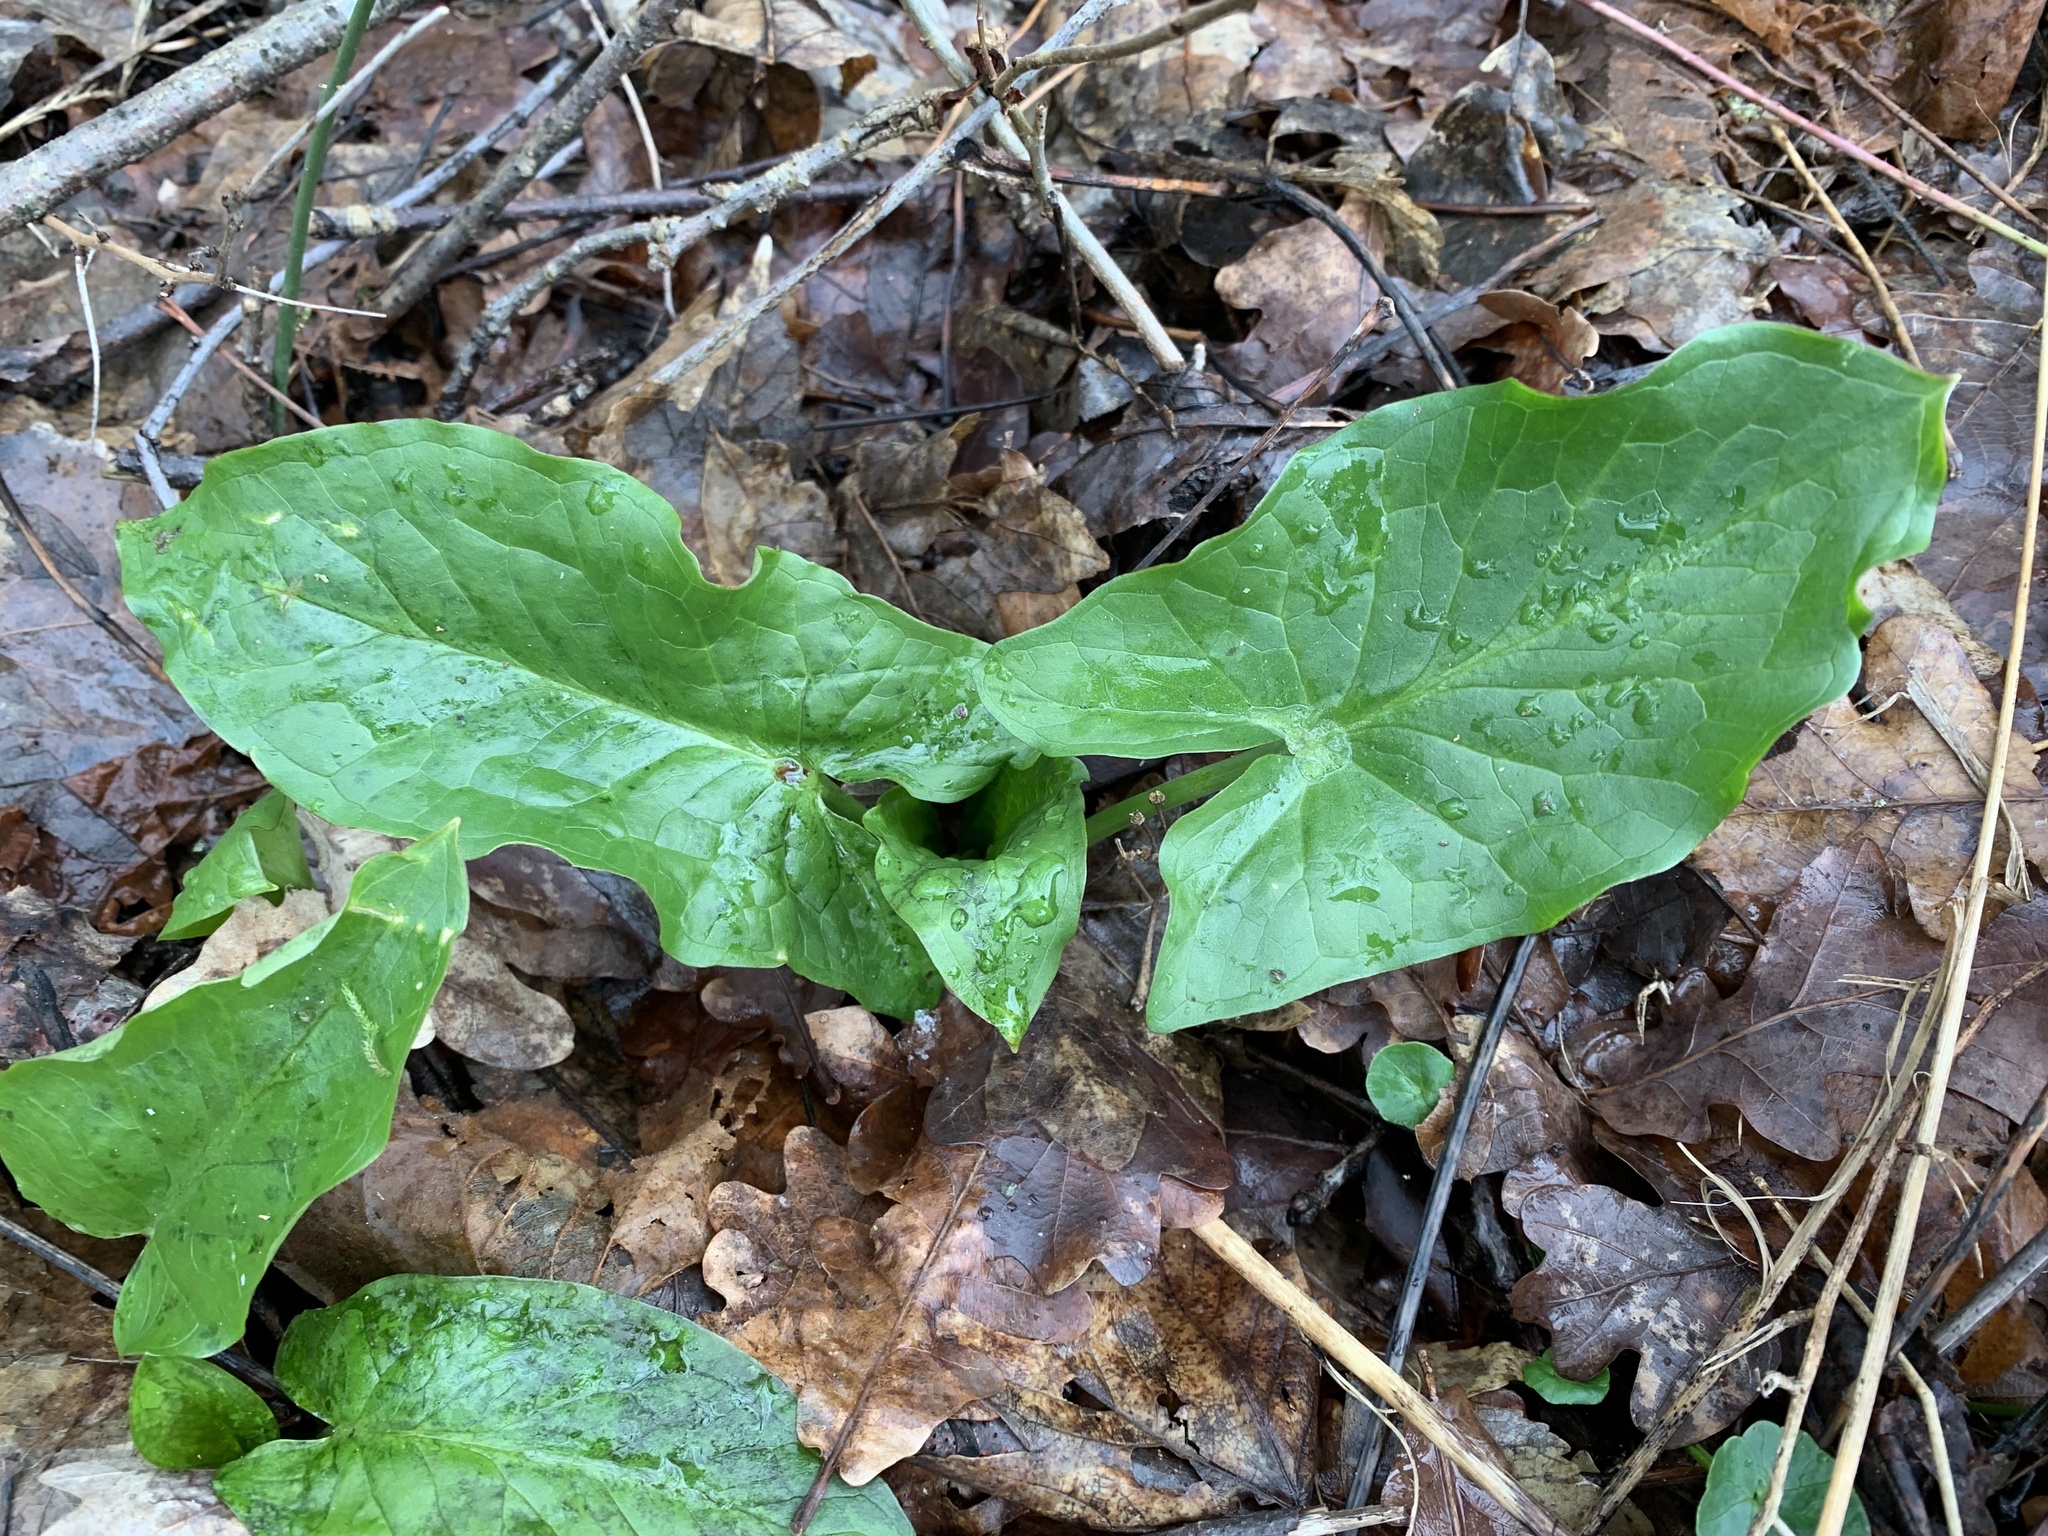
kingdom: Plantae
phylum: Tracheophyta
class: Liliopsida
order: Alismatales
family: Araceae
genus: Arum
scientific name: Arum maculatum
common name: Lords-and-ladies
